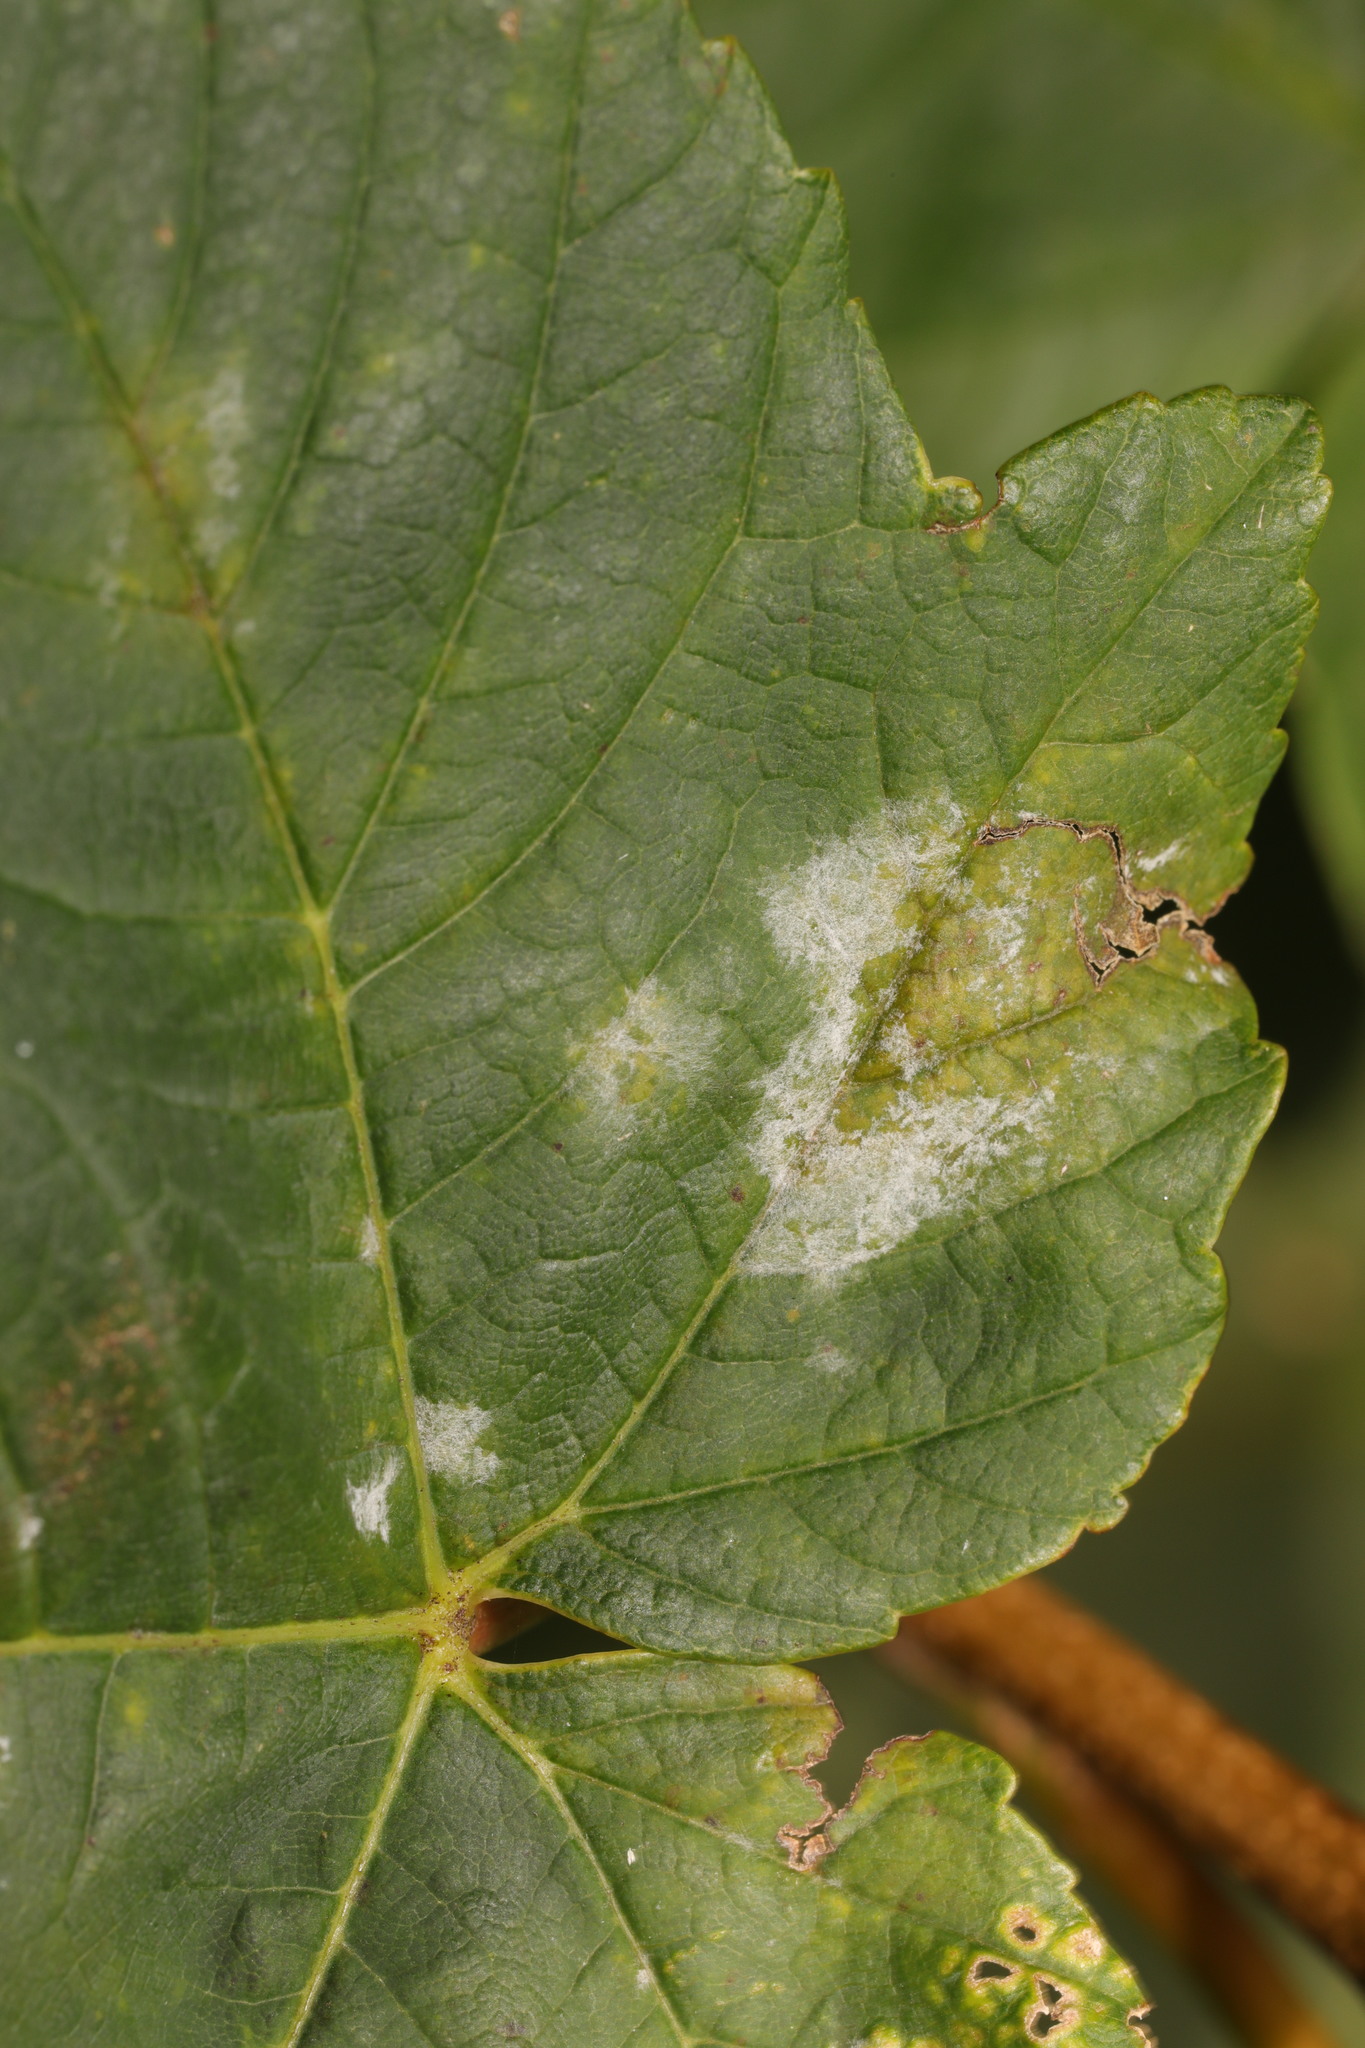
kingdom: Fungi
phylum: Ascomycota
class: Leotiomycetes
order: Helotiales
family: Erysiphaceae
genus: Sawadaea
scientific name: Sawadaea bicornis
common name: Maple mildew
